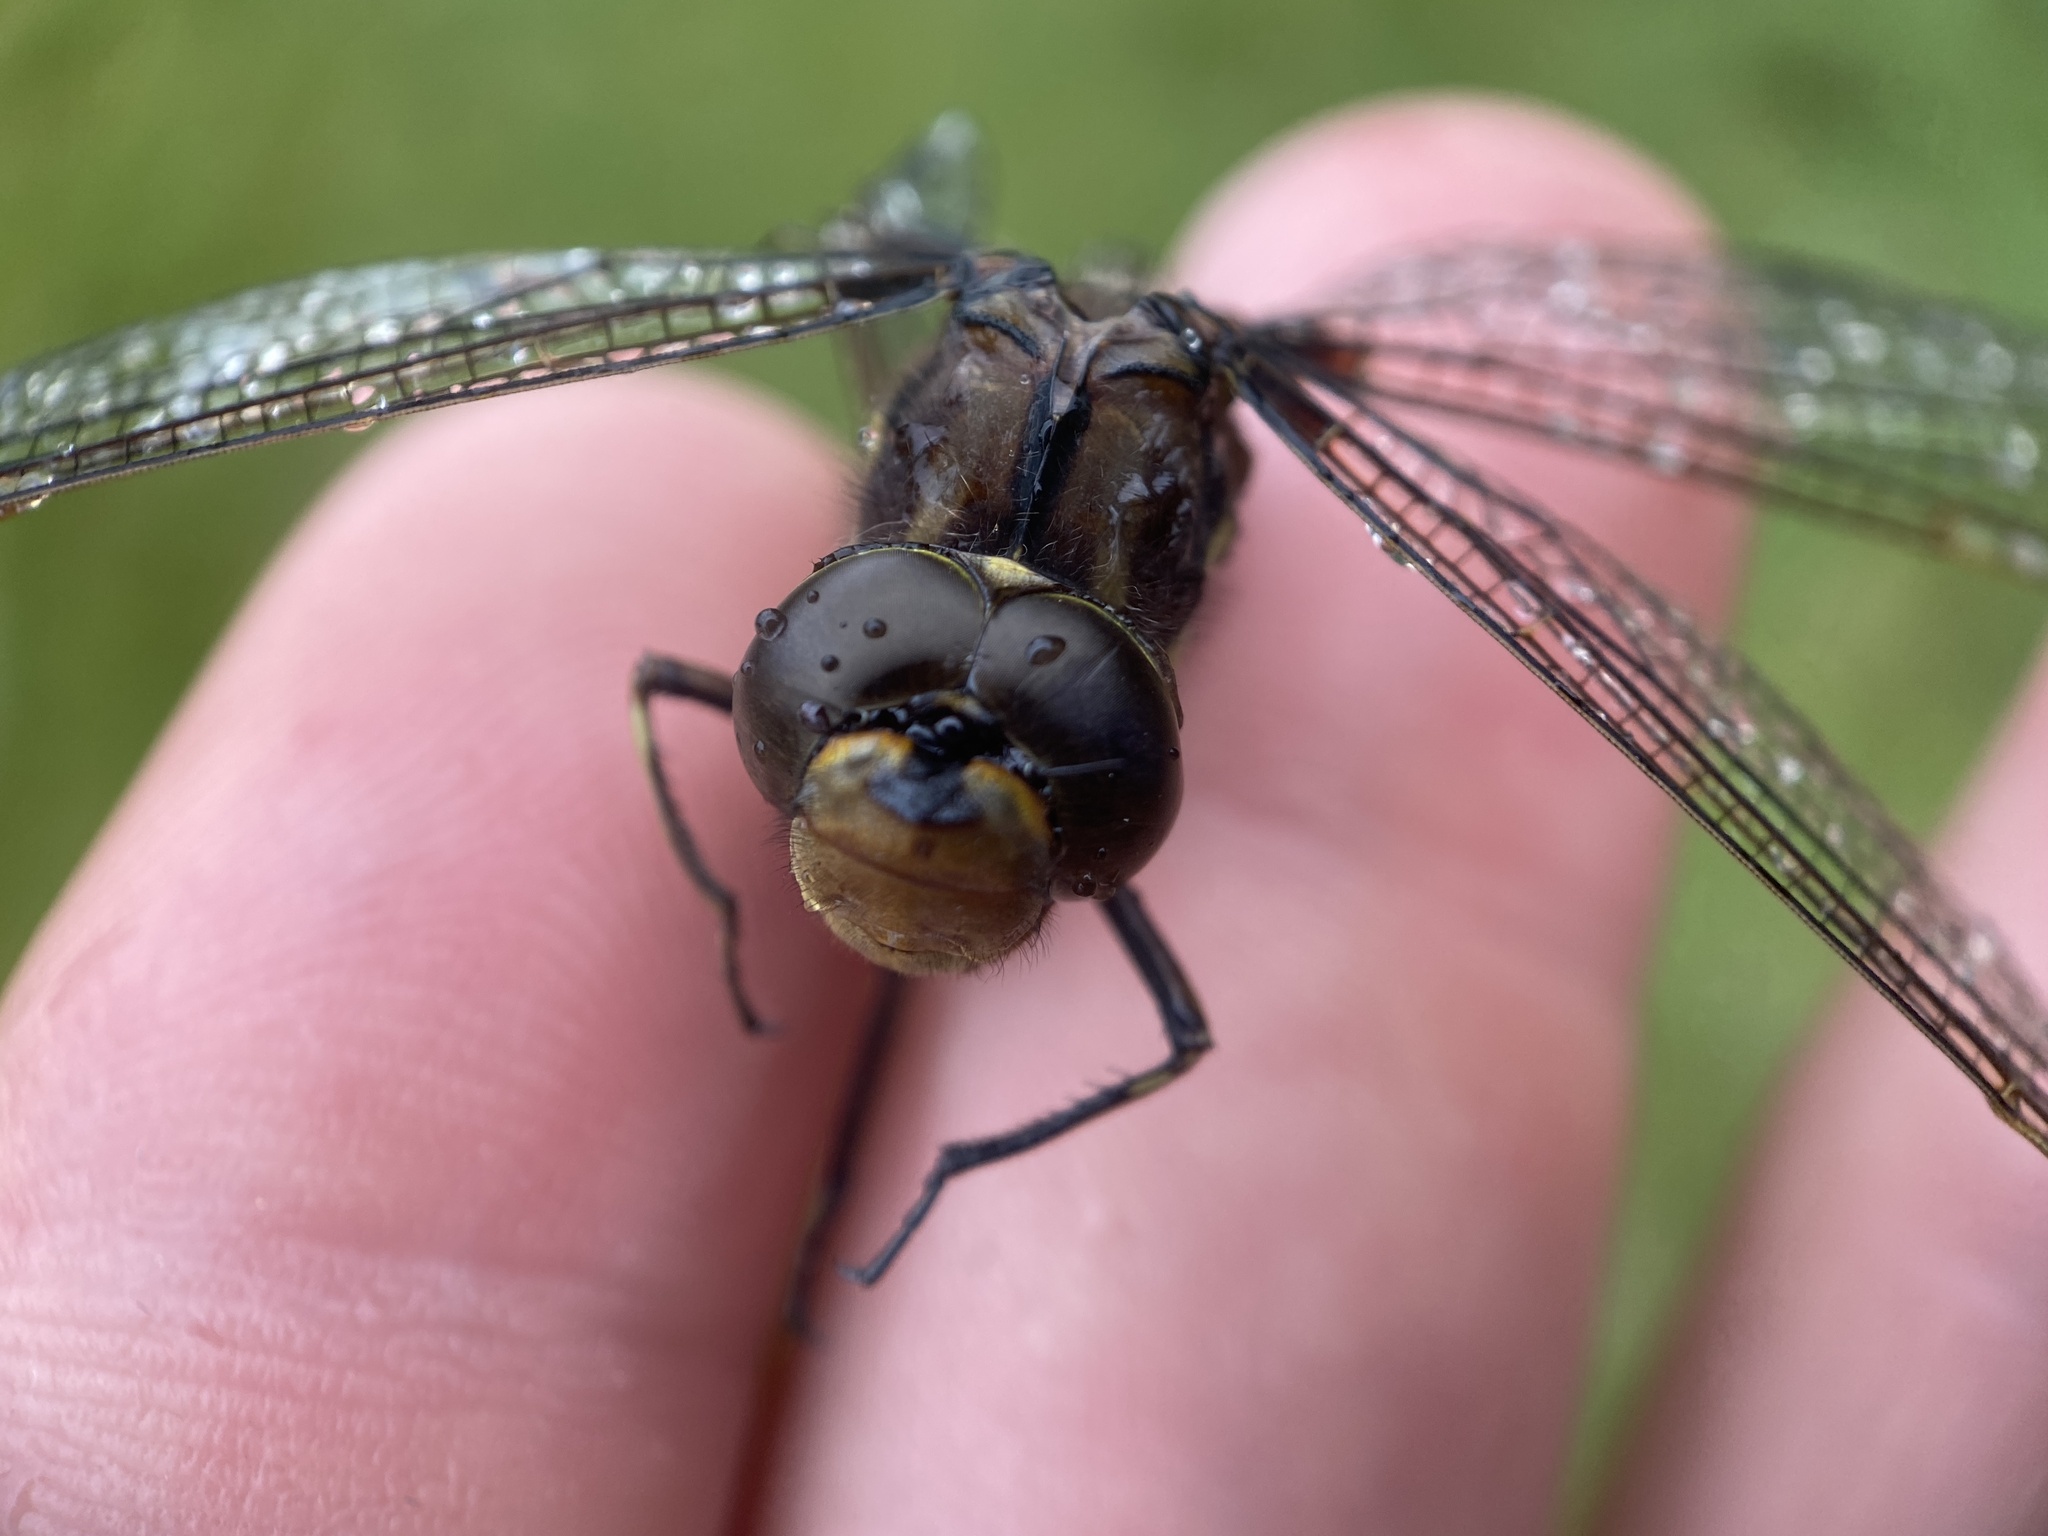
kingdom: Animalia
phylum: Arthropoda
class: Insecta
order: Odonata
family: Aeshnidae
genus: Basiaeschna
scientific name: Basiaeschna janata
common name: Springtime darner
